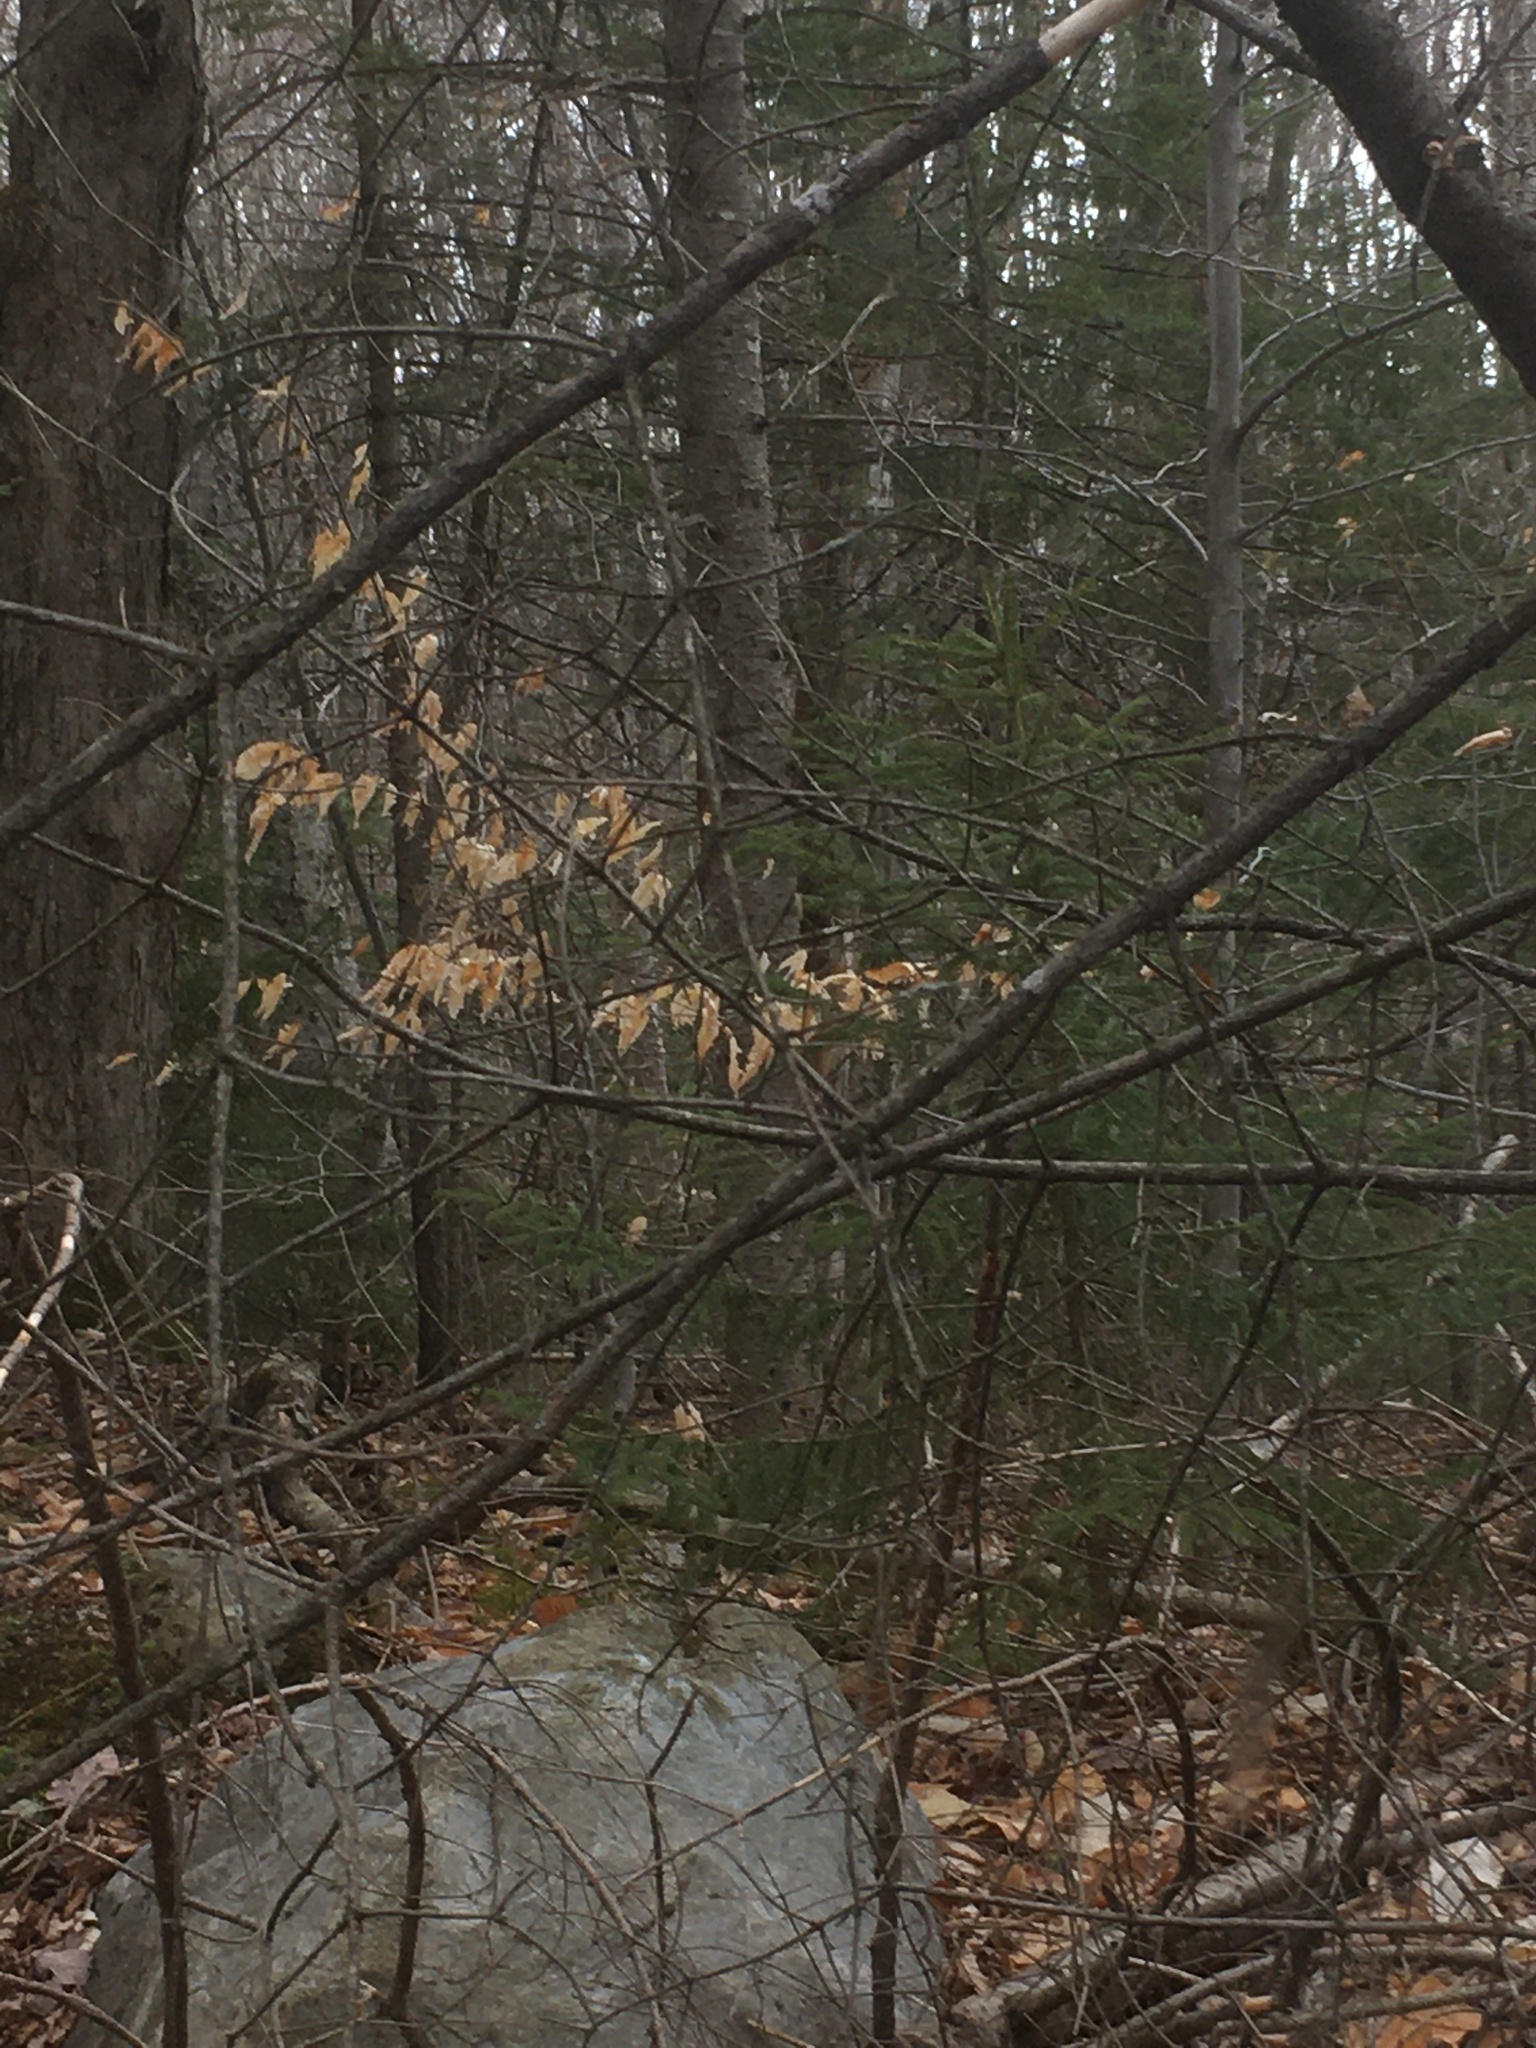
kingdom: Plantae
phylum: Tracheophyta
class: Magnoliopsida
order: Fagales
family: Fagaceae
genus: Fagus
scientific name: Fagus grandifolia
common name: American beech
